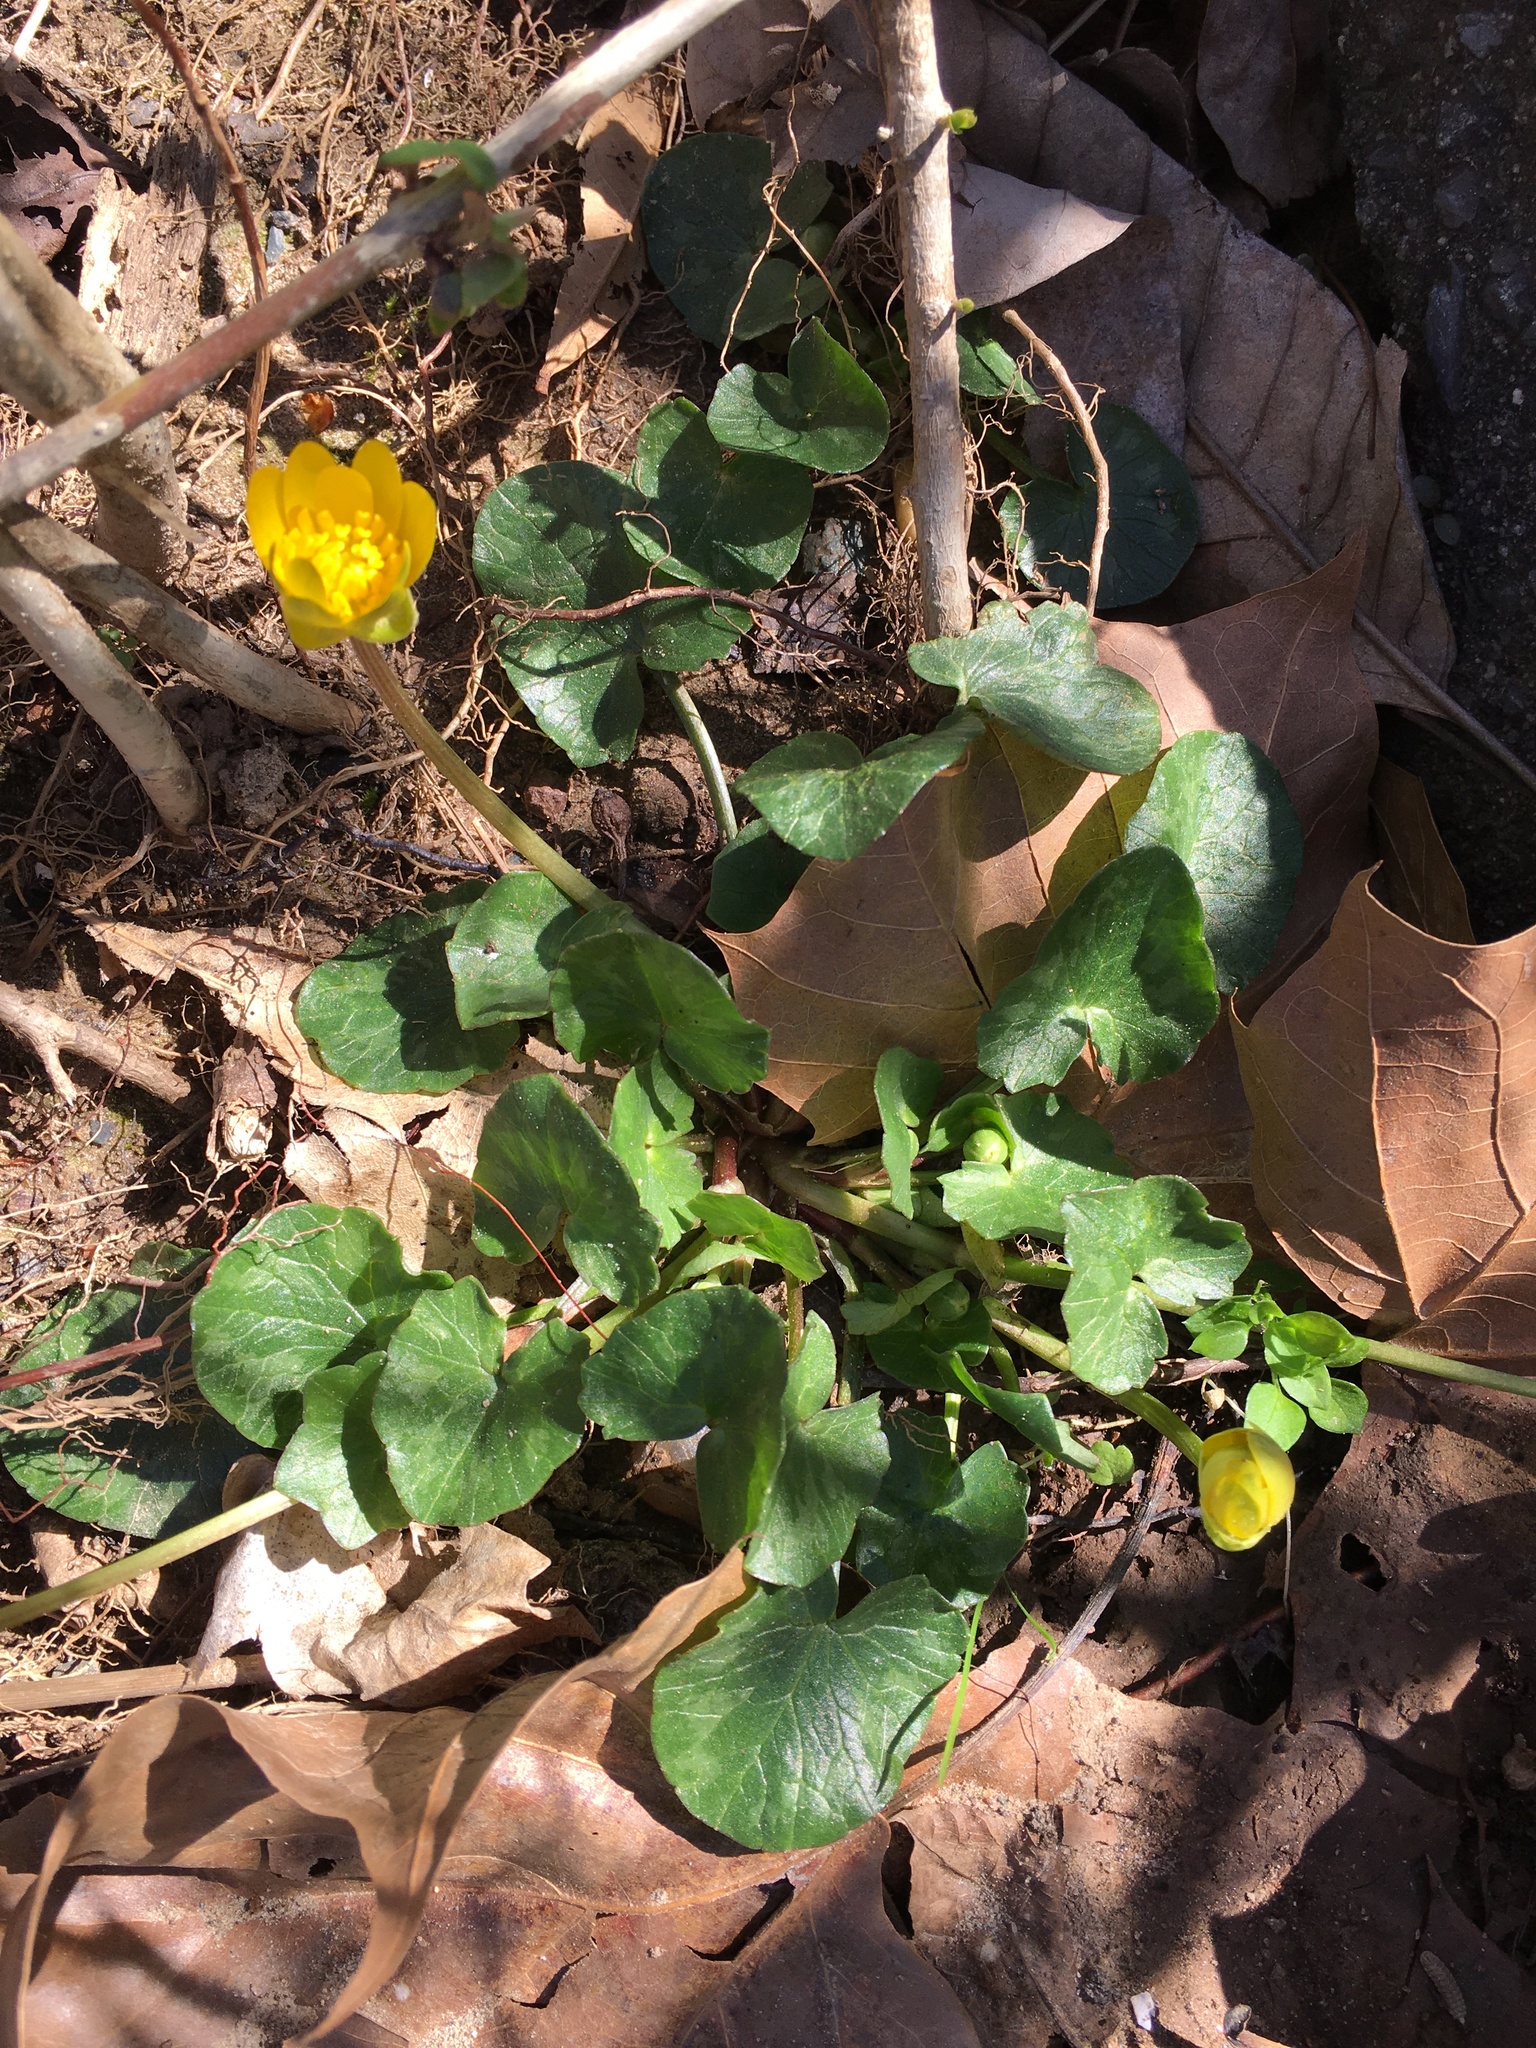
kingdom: Plantae
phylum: Tracheophyta
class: Magnoliopsida
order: Ranunculales
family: Ranunculaceae
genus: Ficaria
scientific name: Ficaria verna
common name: Lesser celandine
